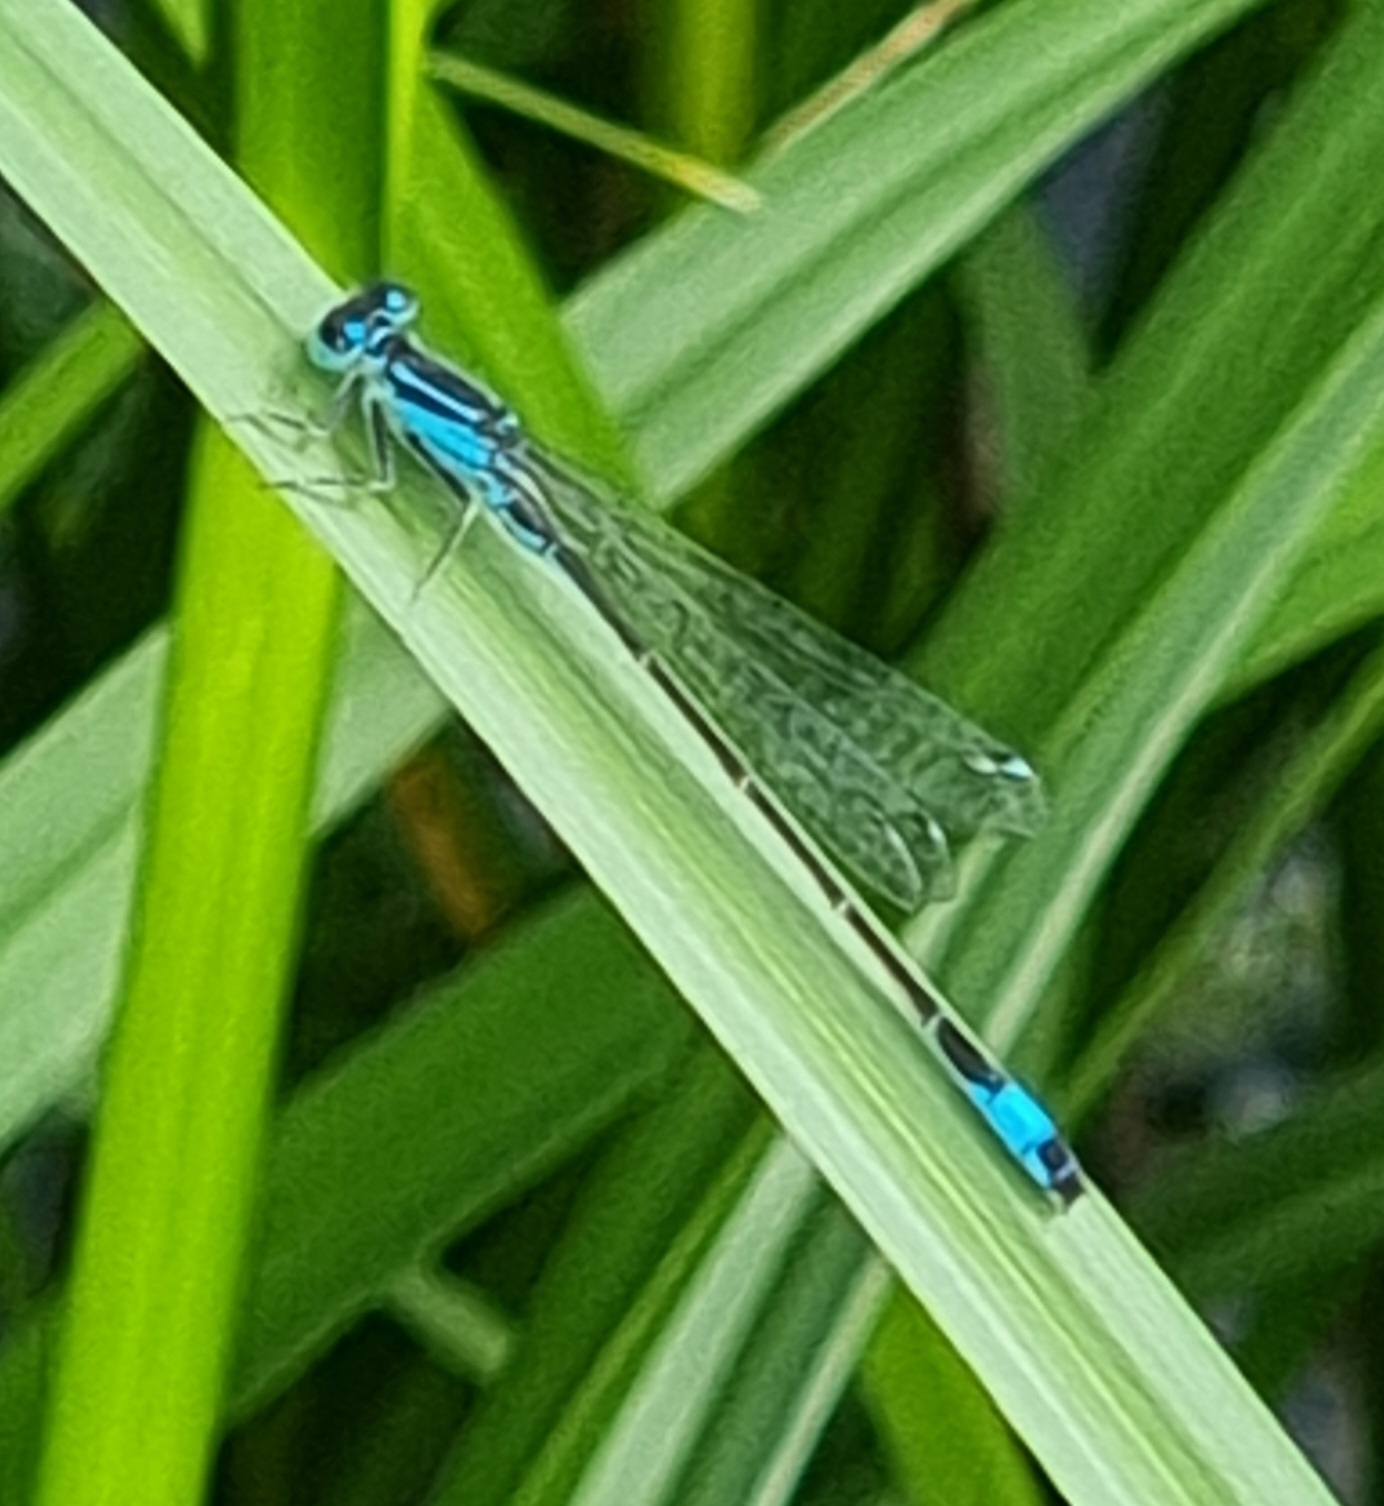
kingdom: Animalia
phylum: Arthropoda
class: Insecta
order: Odonata
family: Coenagrionidae
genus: Ischnura
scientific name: Ischnura elegans
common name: Blue-tailed damselfly
